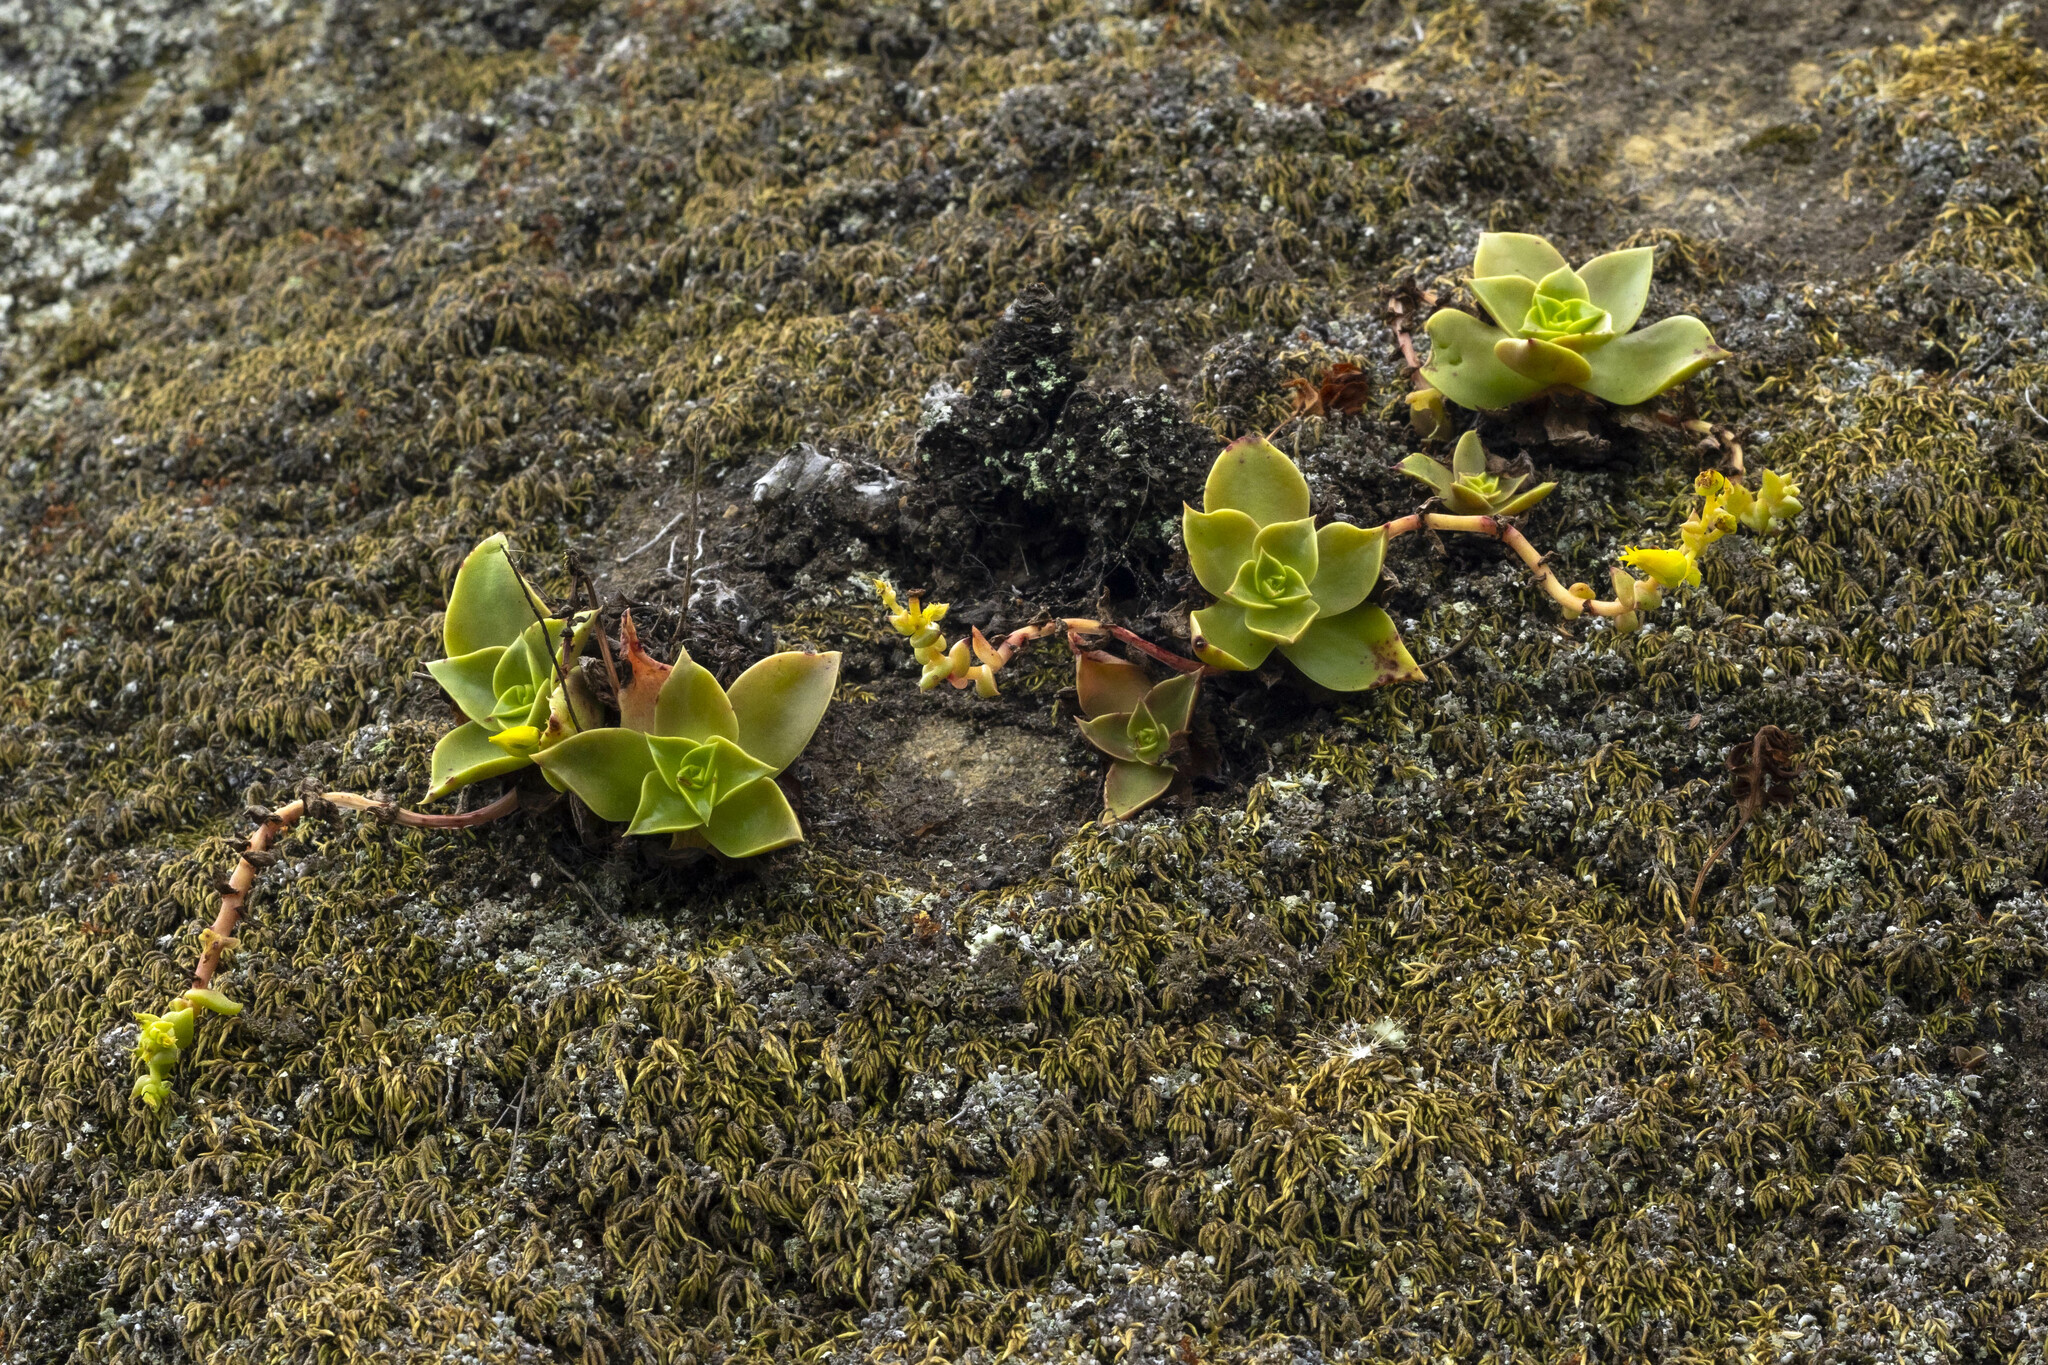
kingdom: Plantae
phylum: Tracheophyta
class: Magnoliopsida
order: Saxifragales
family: Crassulaceae
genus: Dudleya
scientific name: Dudleya stolonifera
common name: Laguna beach dudleya
